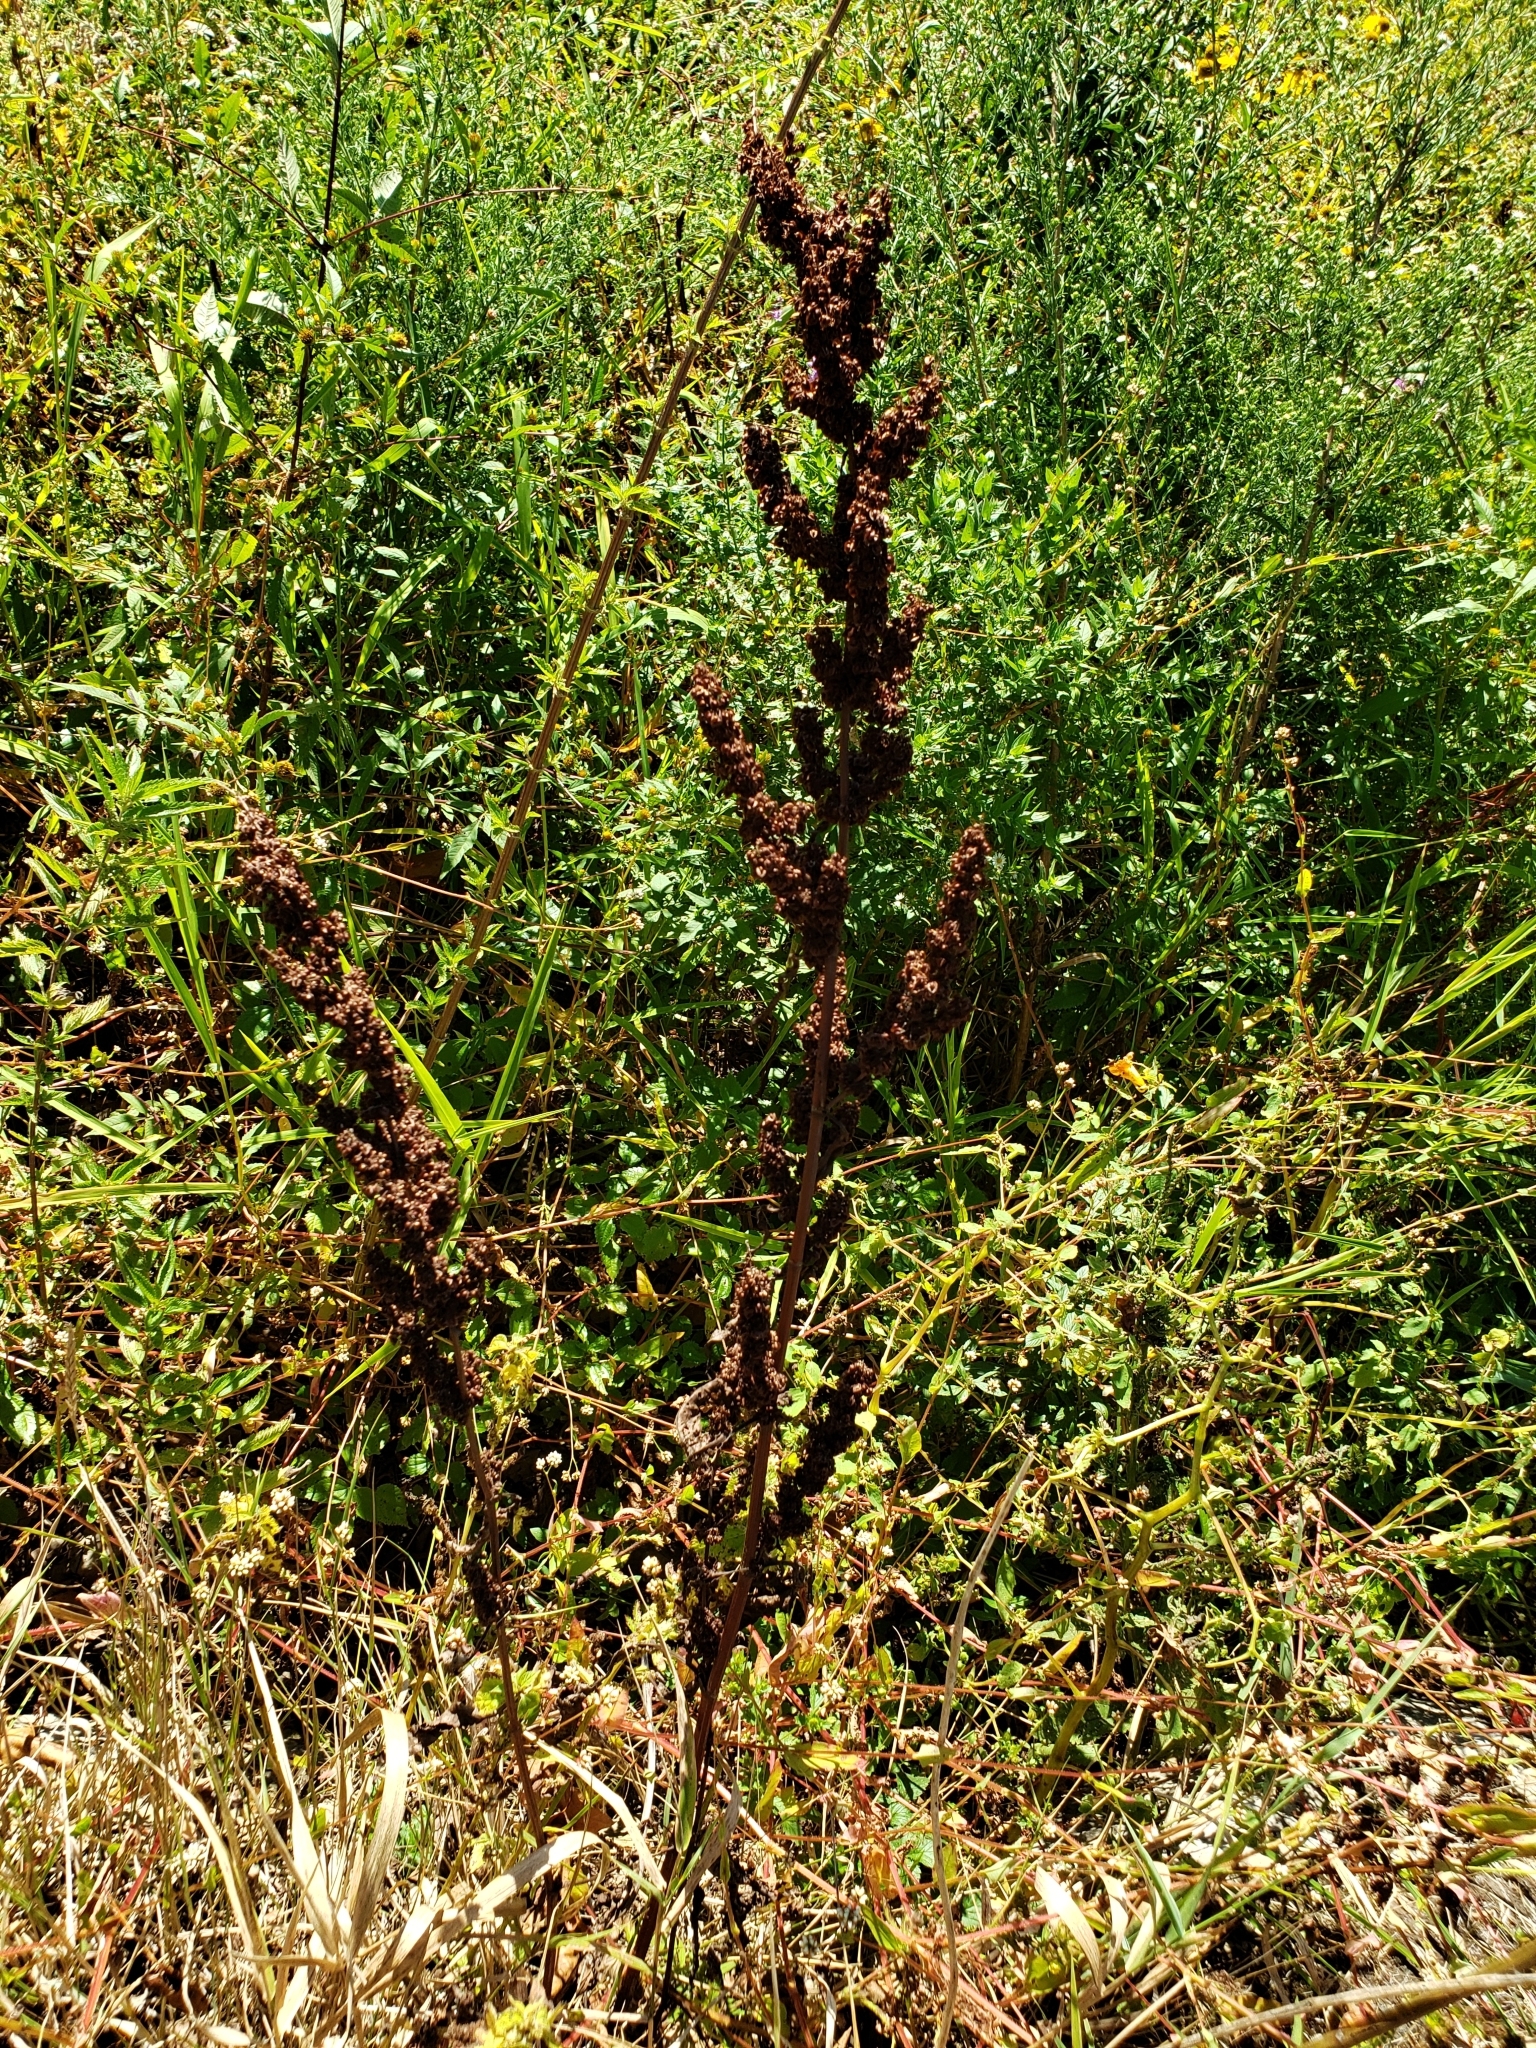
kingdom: Plantae
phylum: Tracheophyta
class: Magnoliopsida
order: Caryophyllales
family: Polygonaceae
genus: Rumex
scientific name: Rumex crispus
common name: Curled dock
